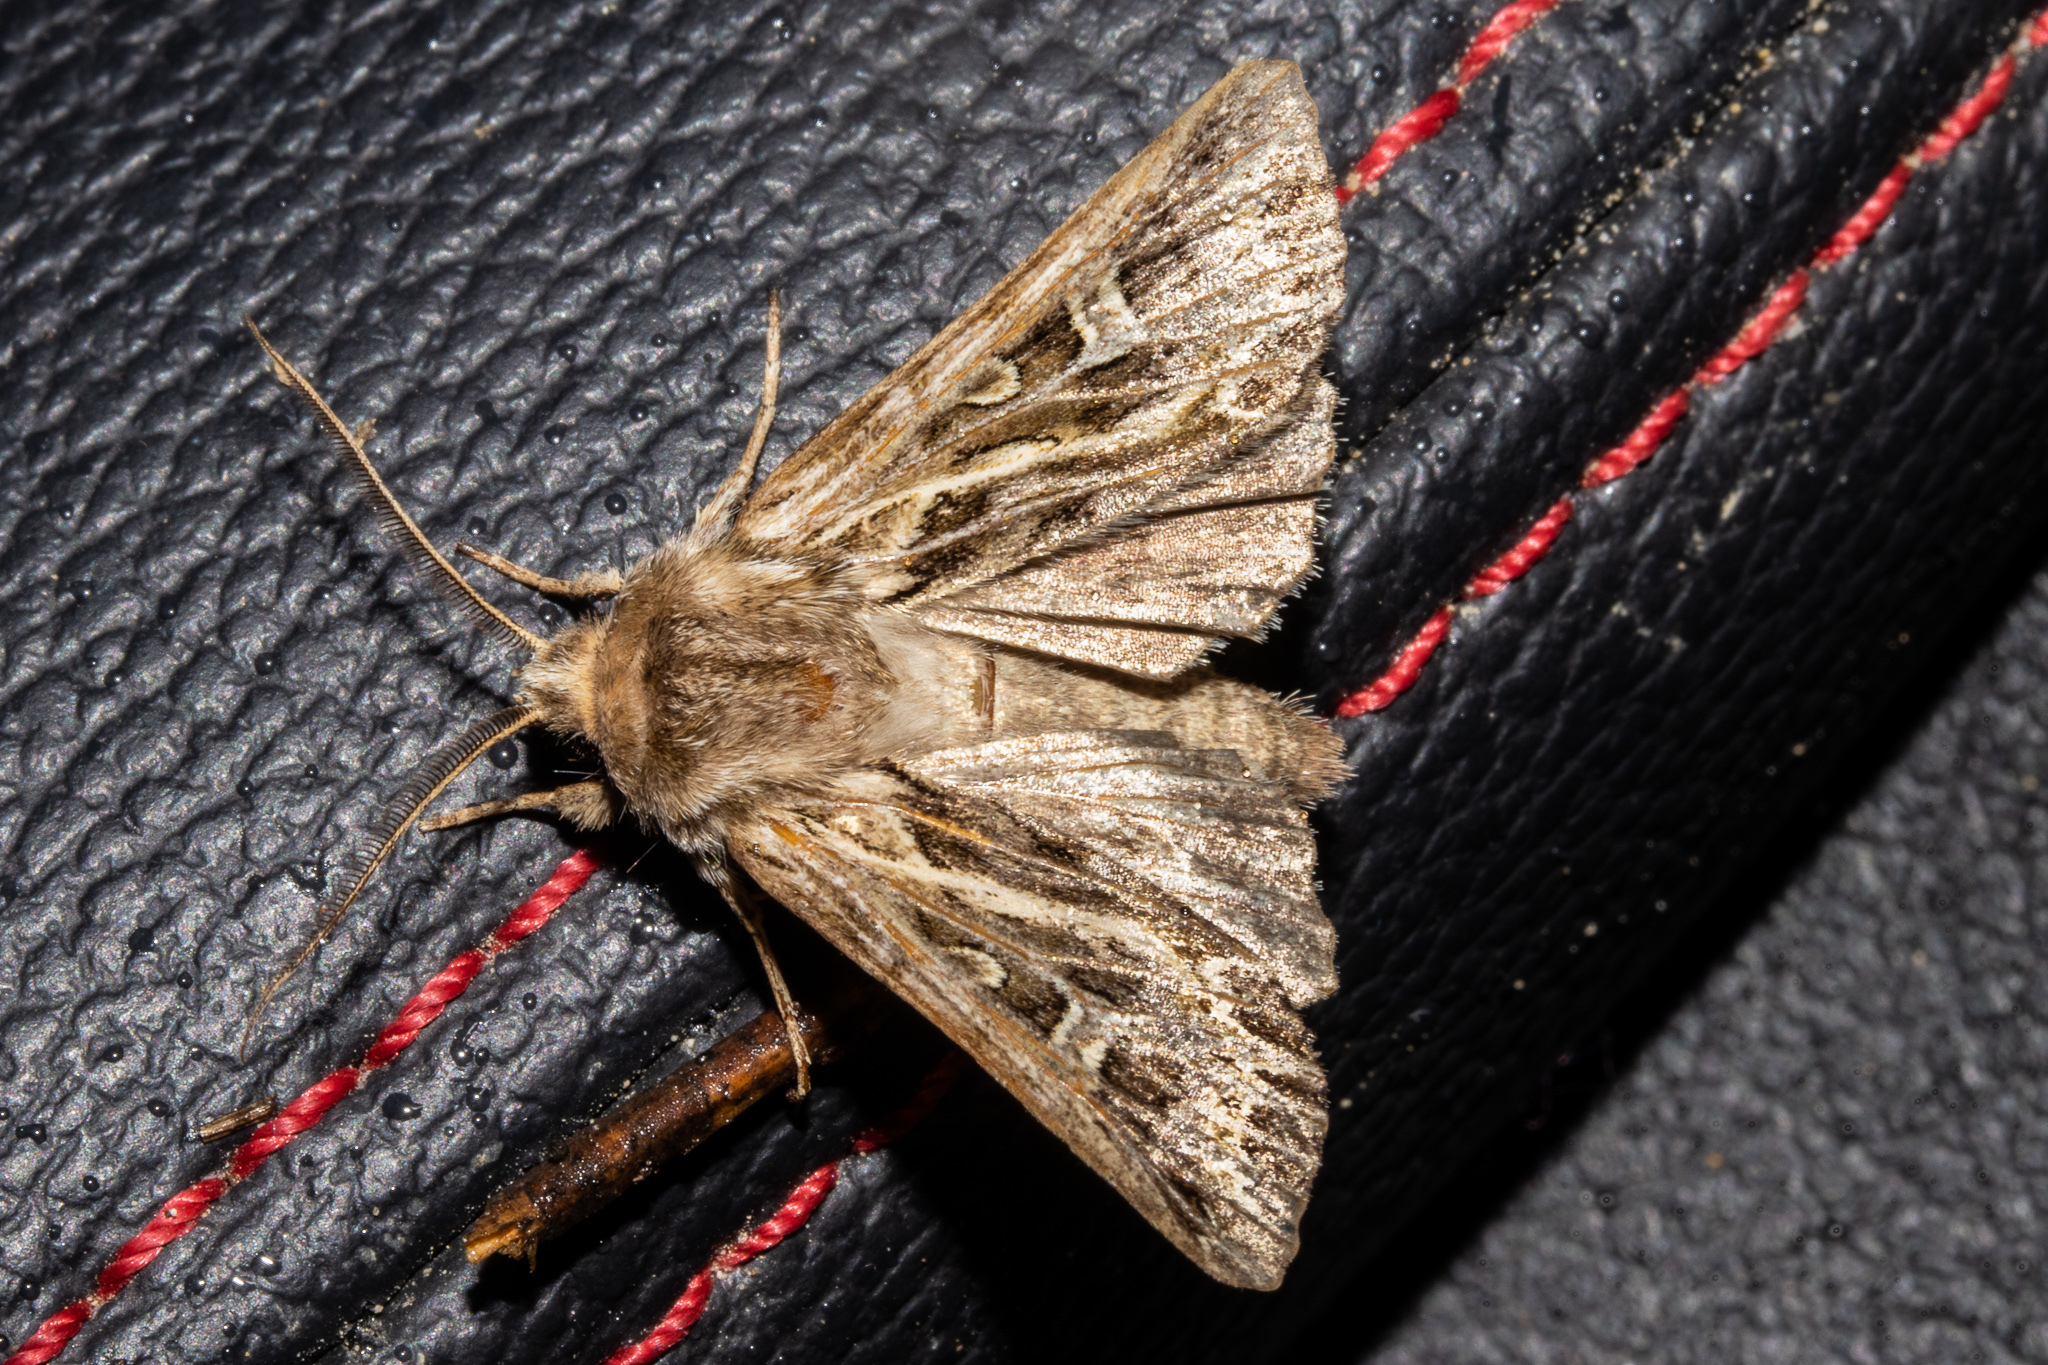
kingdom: Animalia
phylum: Arthropoda
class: Insecta
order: Lepidoptera
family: Noctuidae
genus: Ichneutica
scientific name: Ichneutica
